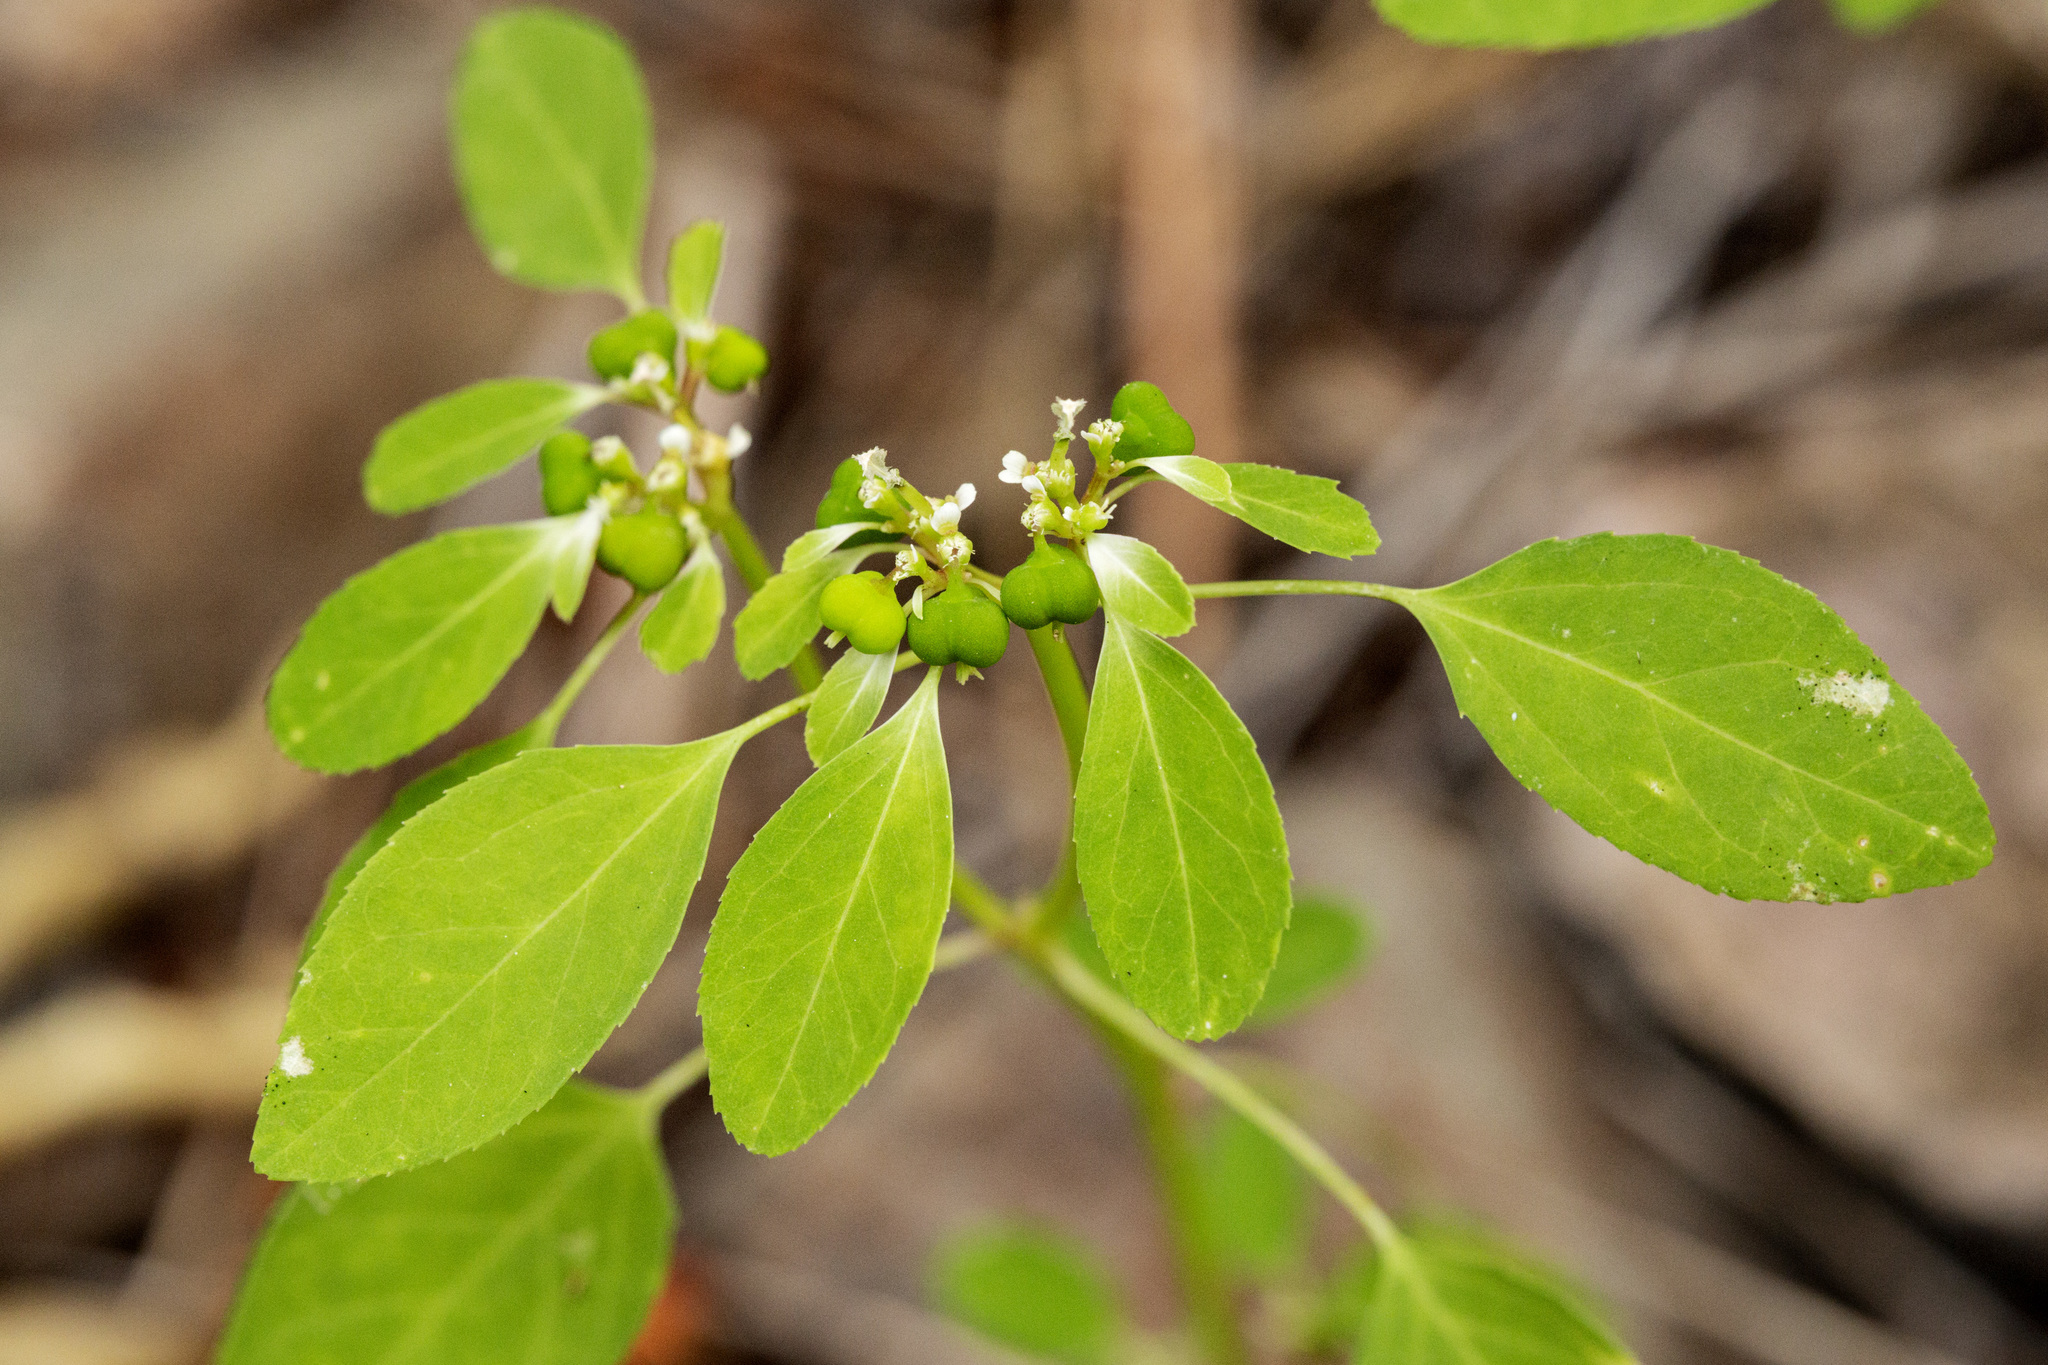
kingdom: Plantae
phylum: Tracheophyta
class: Magnoliopsida
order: Malpighiales
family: Euphorbiaceae
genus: Euphorbia
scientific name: Euphorbia bifurcata
